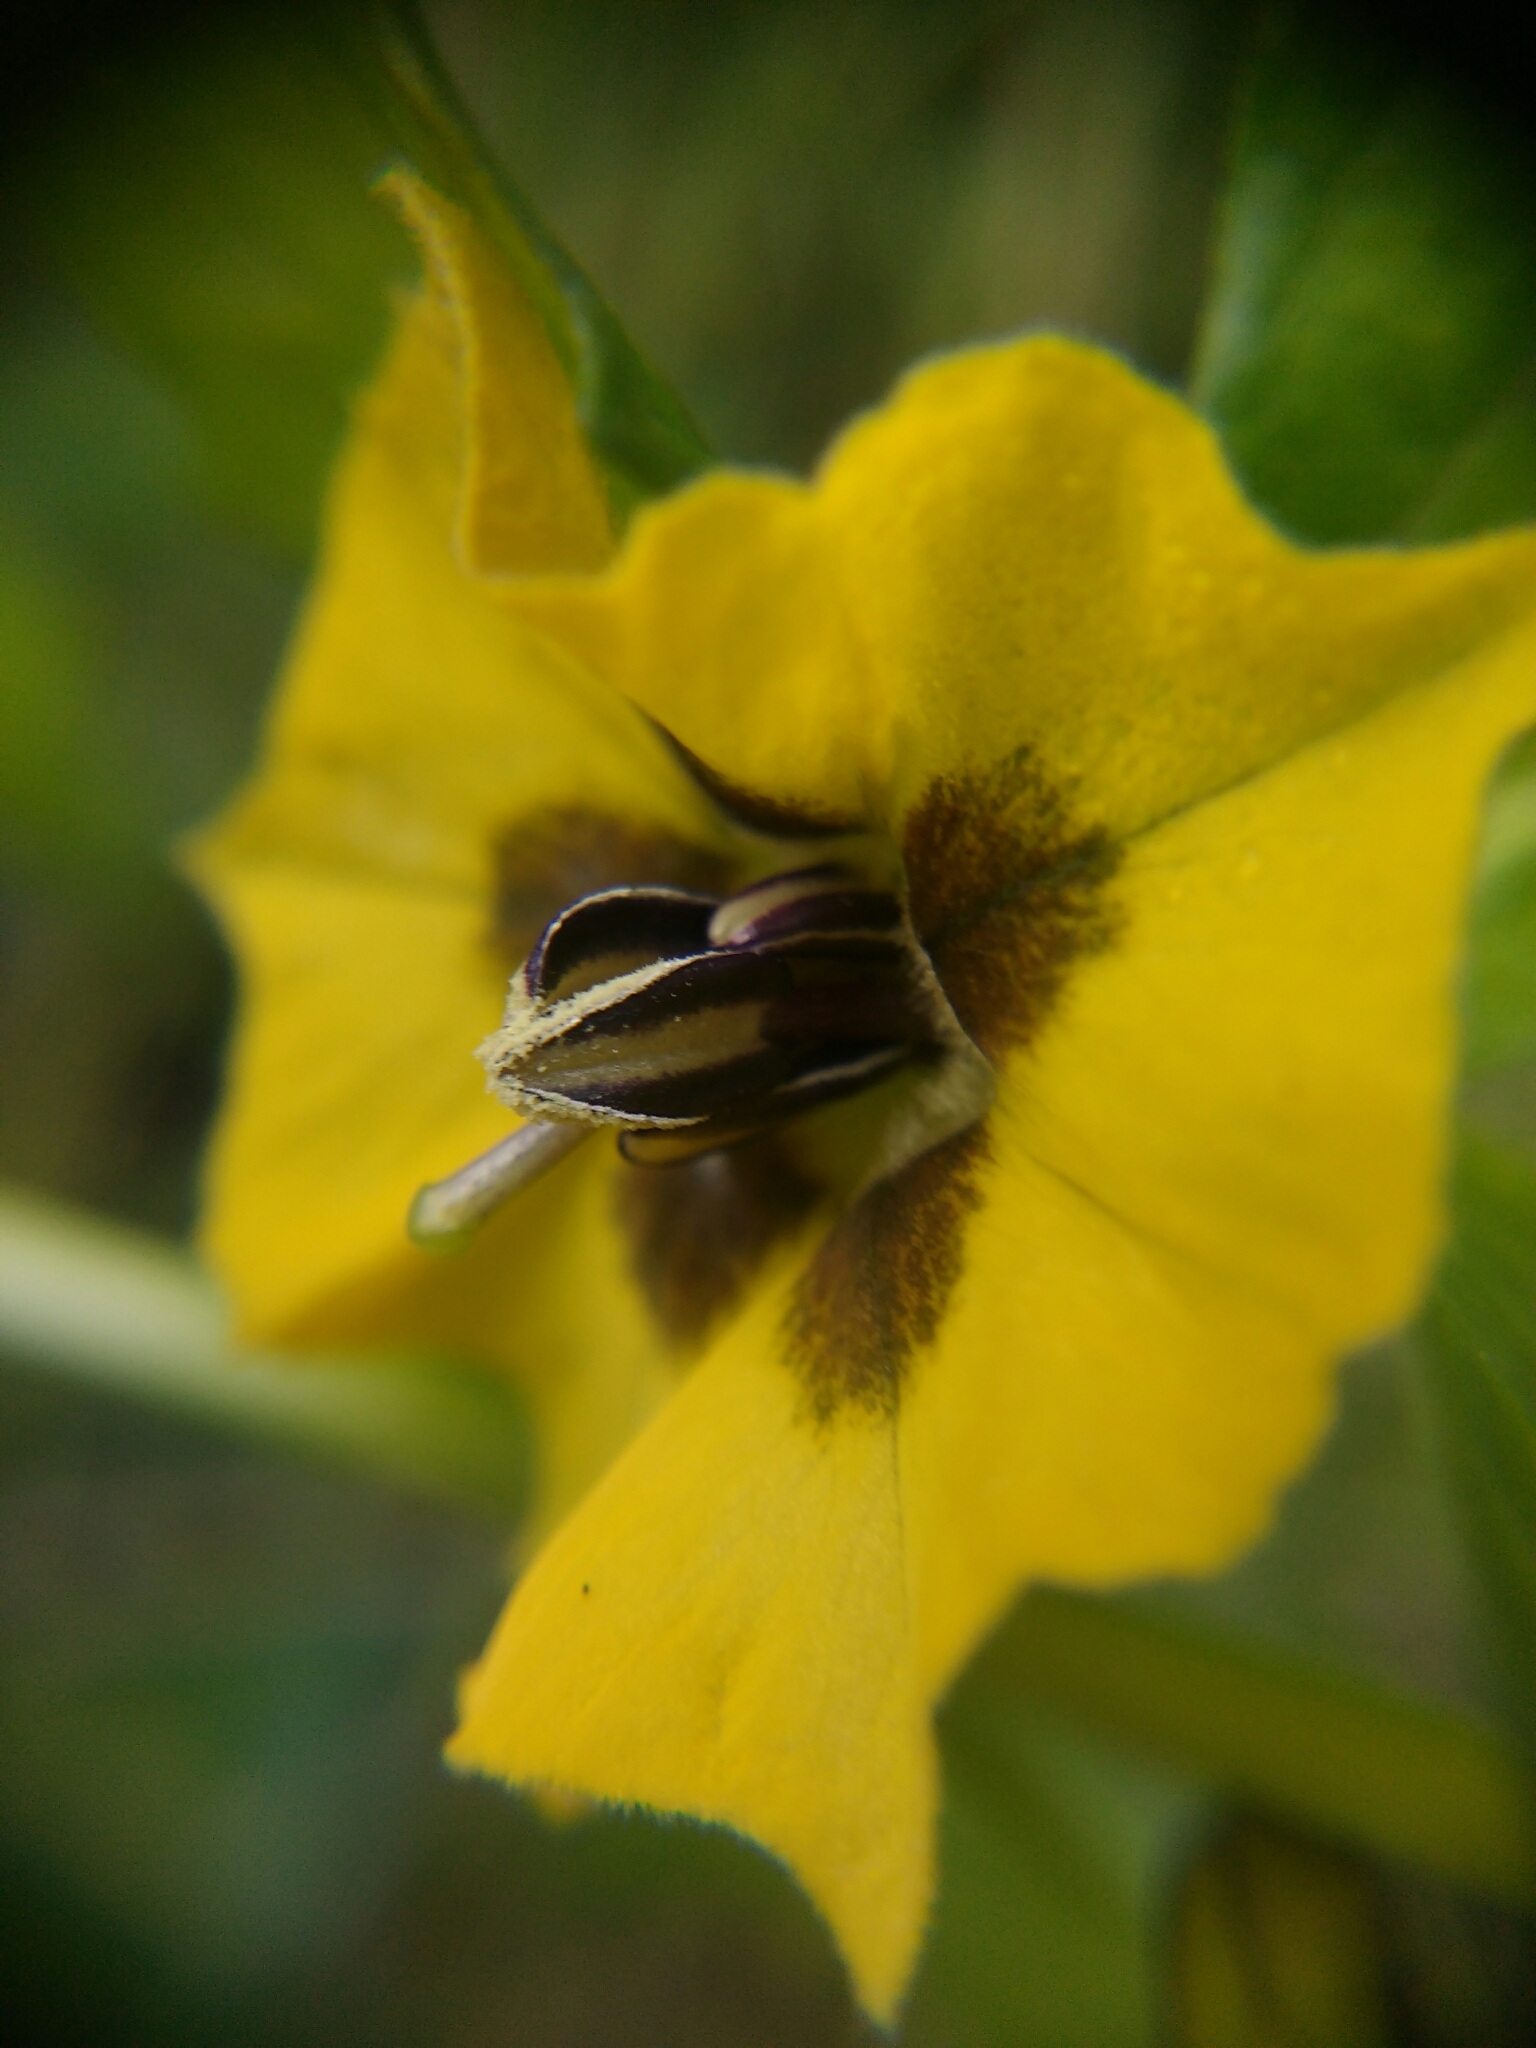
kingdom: Plantae
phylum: Tracheophyta
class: Magnoliopsida
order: Solanales
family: Solanaceae
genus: Physalis
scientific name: Physalis philadelphica
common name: Husk-tomato
